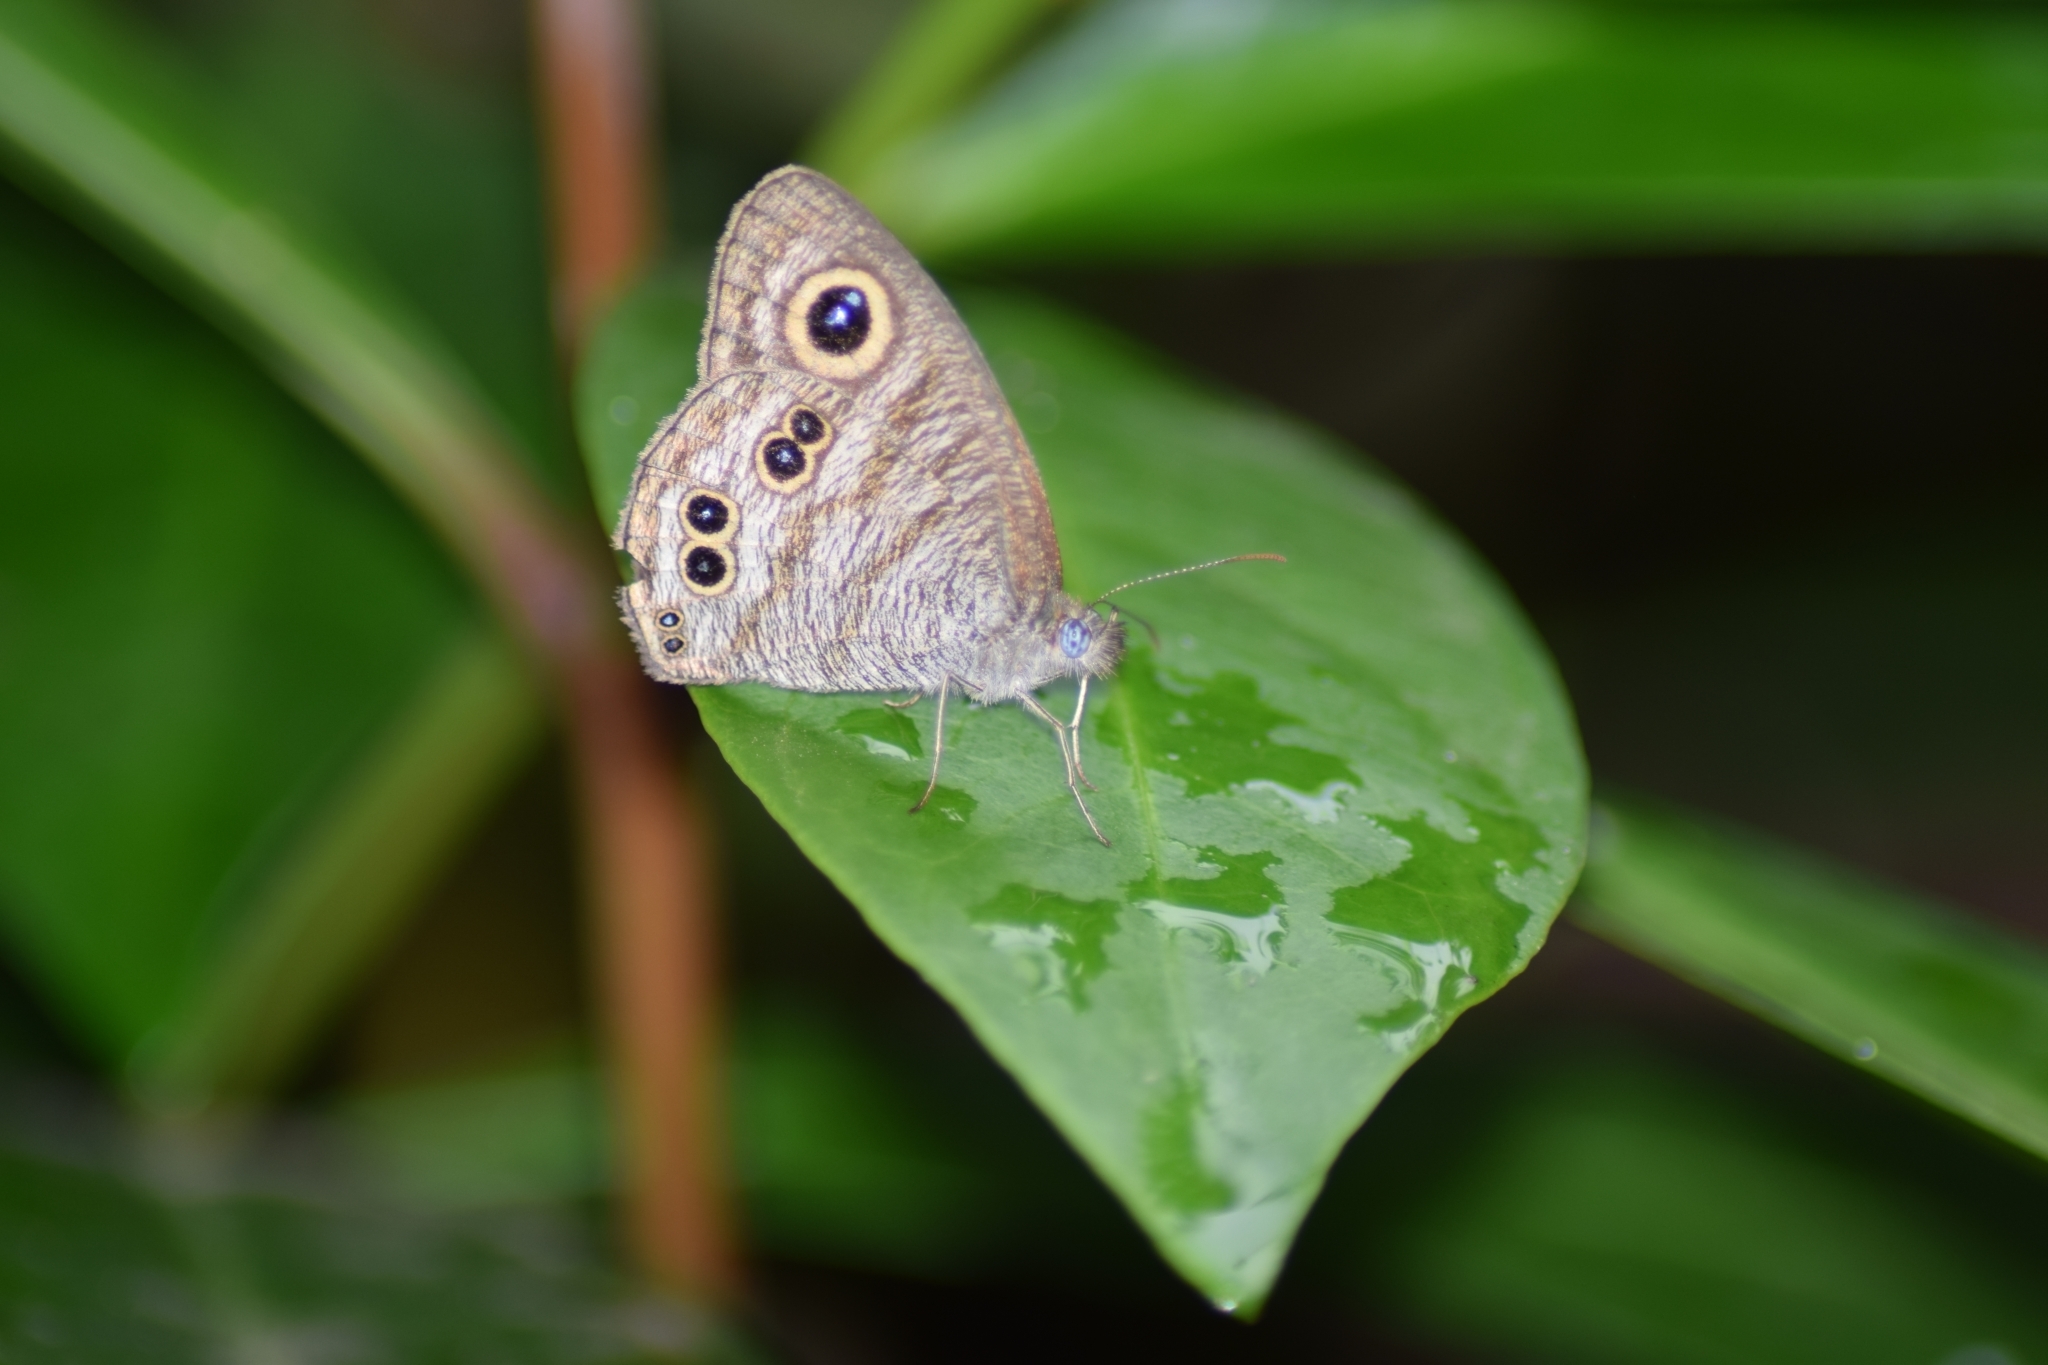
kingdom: Animalia
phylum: Arthropoda
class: Insecta
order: Lepidoptera
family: Nymphalidae
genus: Ypthima
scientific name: Ypthima baldus
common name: Common five-ring
